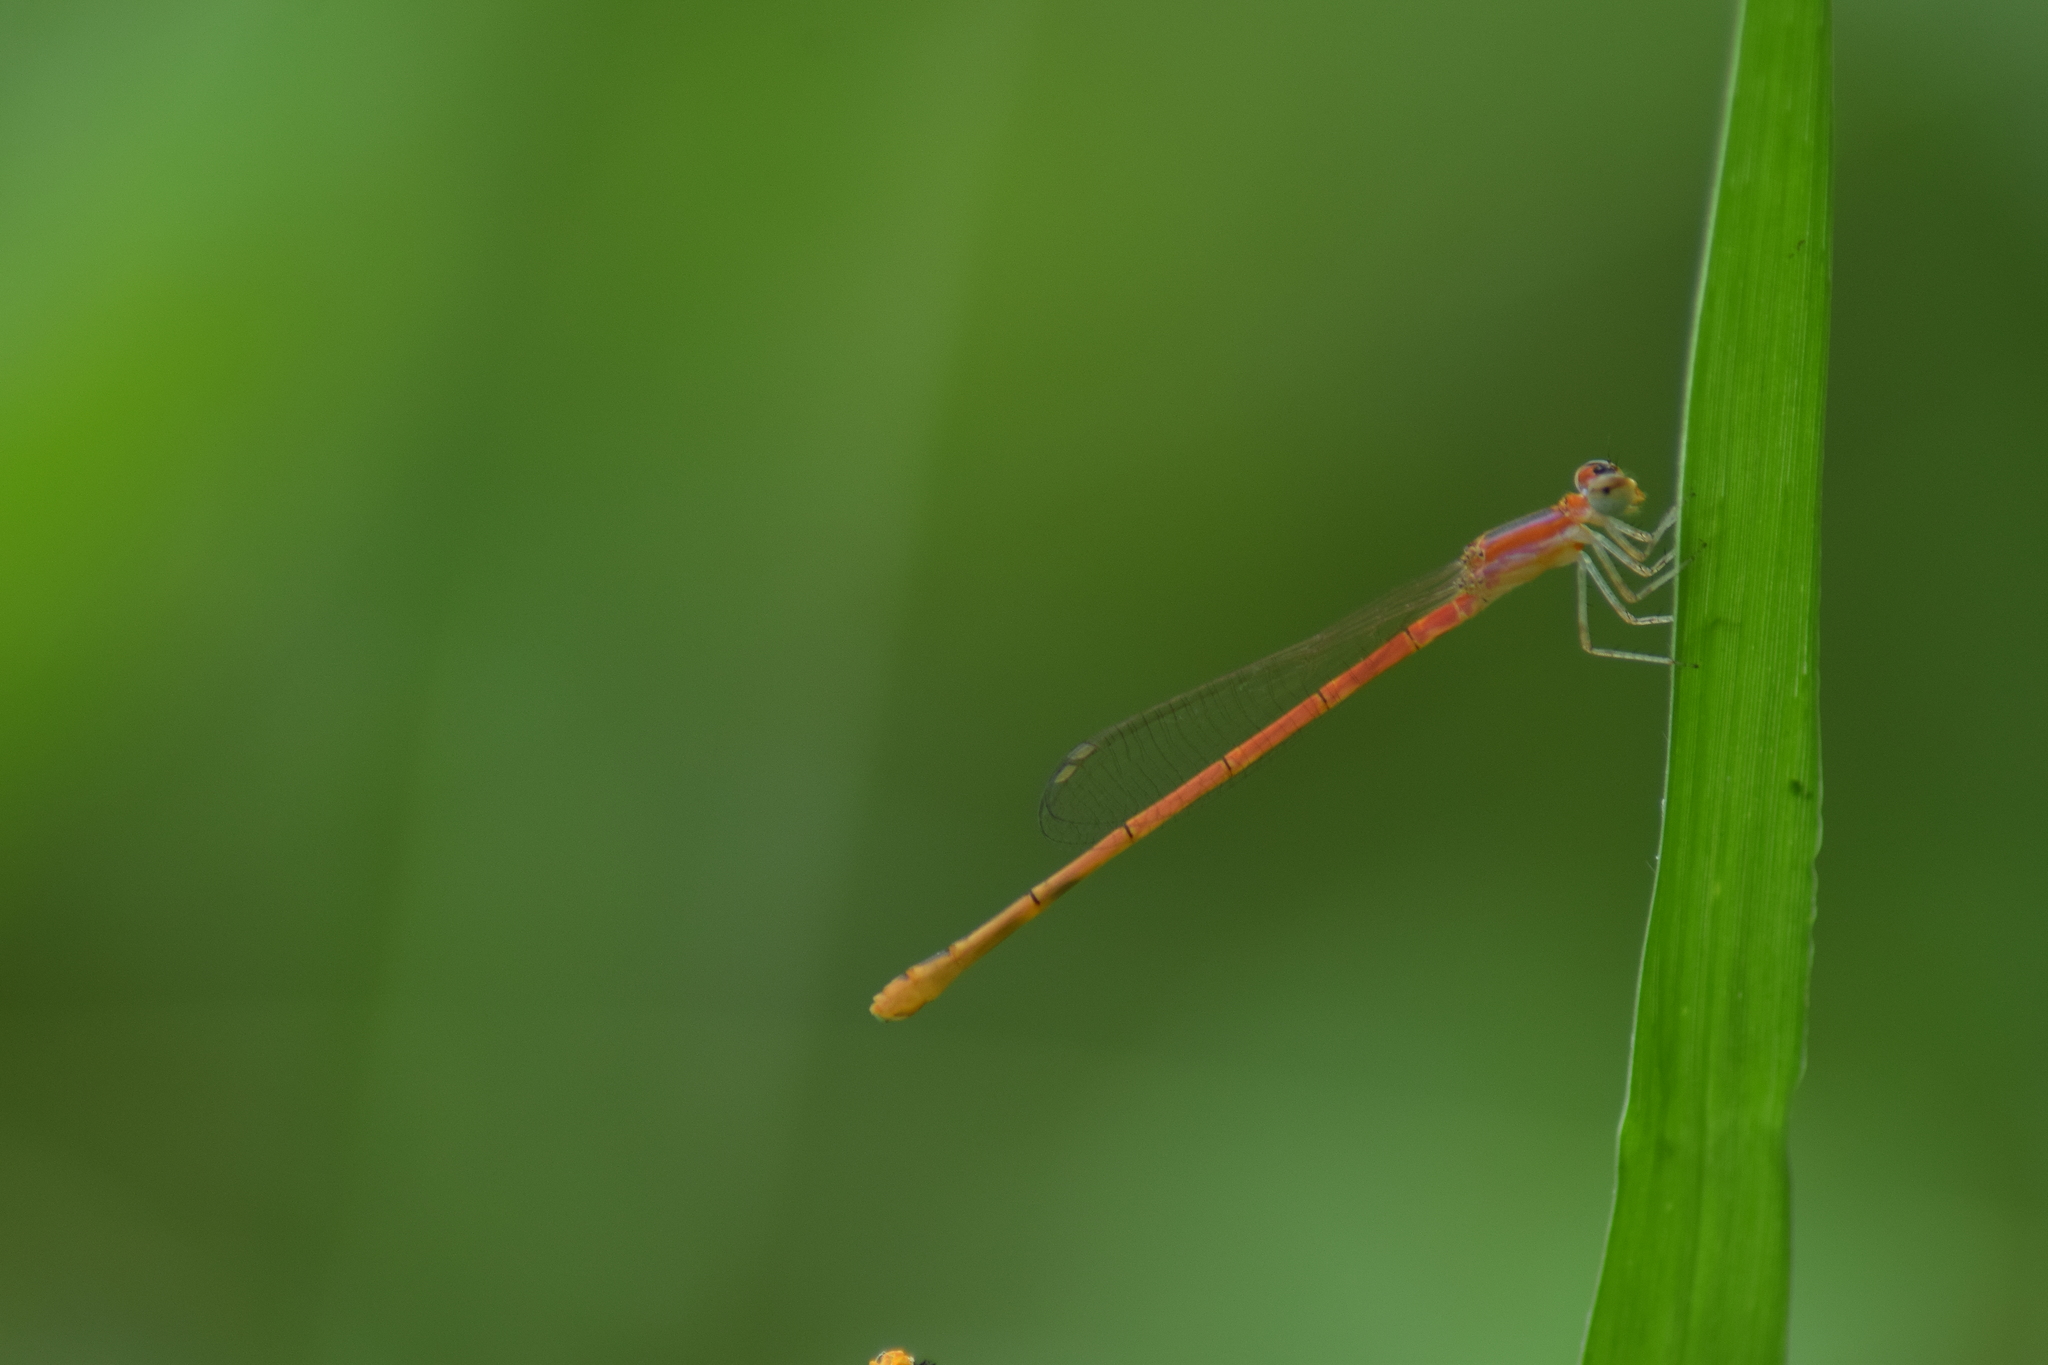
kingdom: Animalia
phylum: Arthropoda
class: Insecta
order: Odonata
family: Coenagrionidae
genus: Agriocnemis
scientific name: Agriocnemis pygmaea
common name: Pygmy wisp
